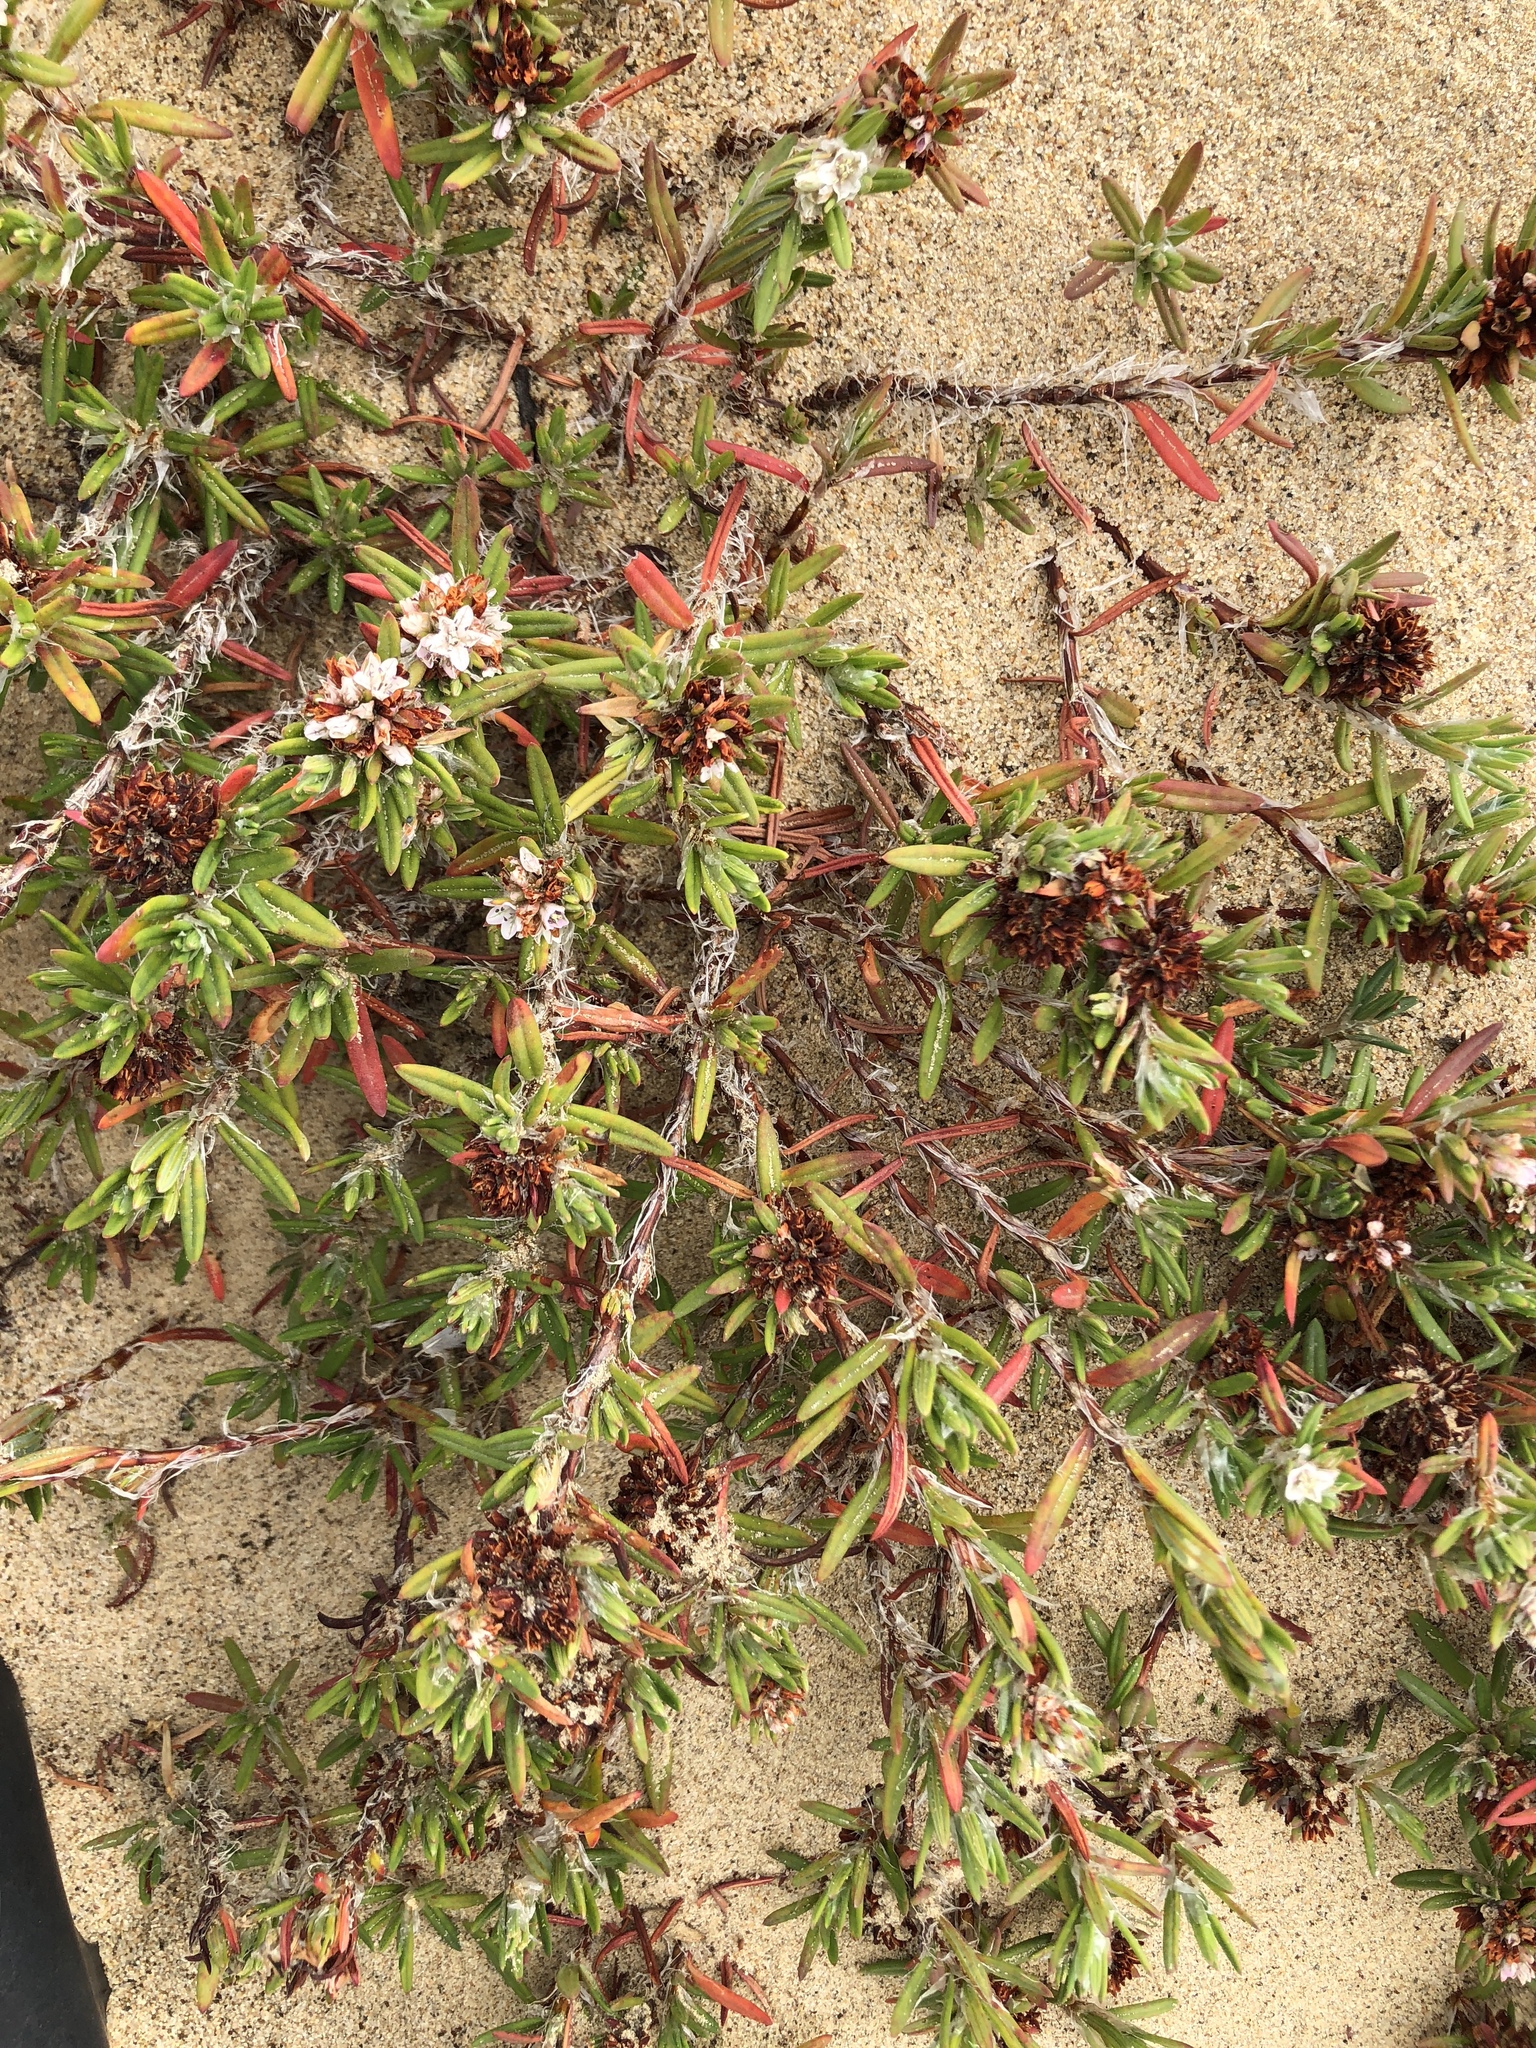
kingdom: Plantae
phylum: Tracheophyta
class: Magnoliopsida
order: Caryophyllales
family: Polygonaceae
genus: Polygonum
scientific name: Polygonum paronychia
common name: Dune knotweed
